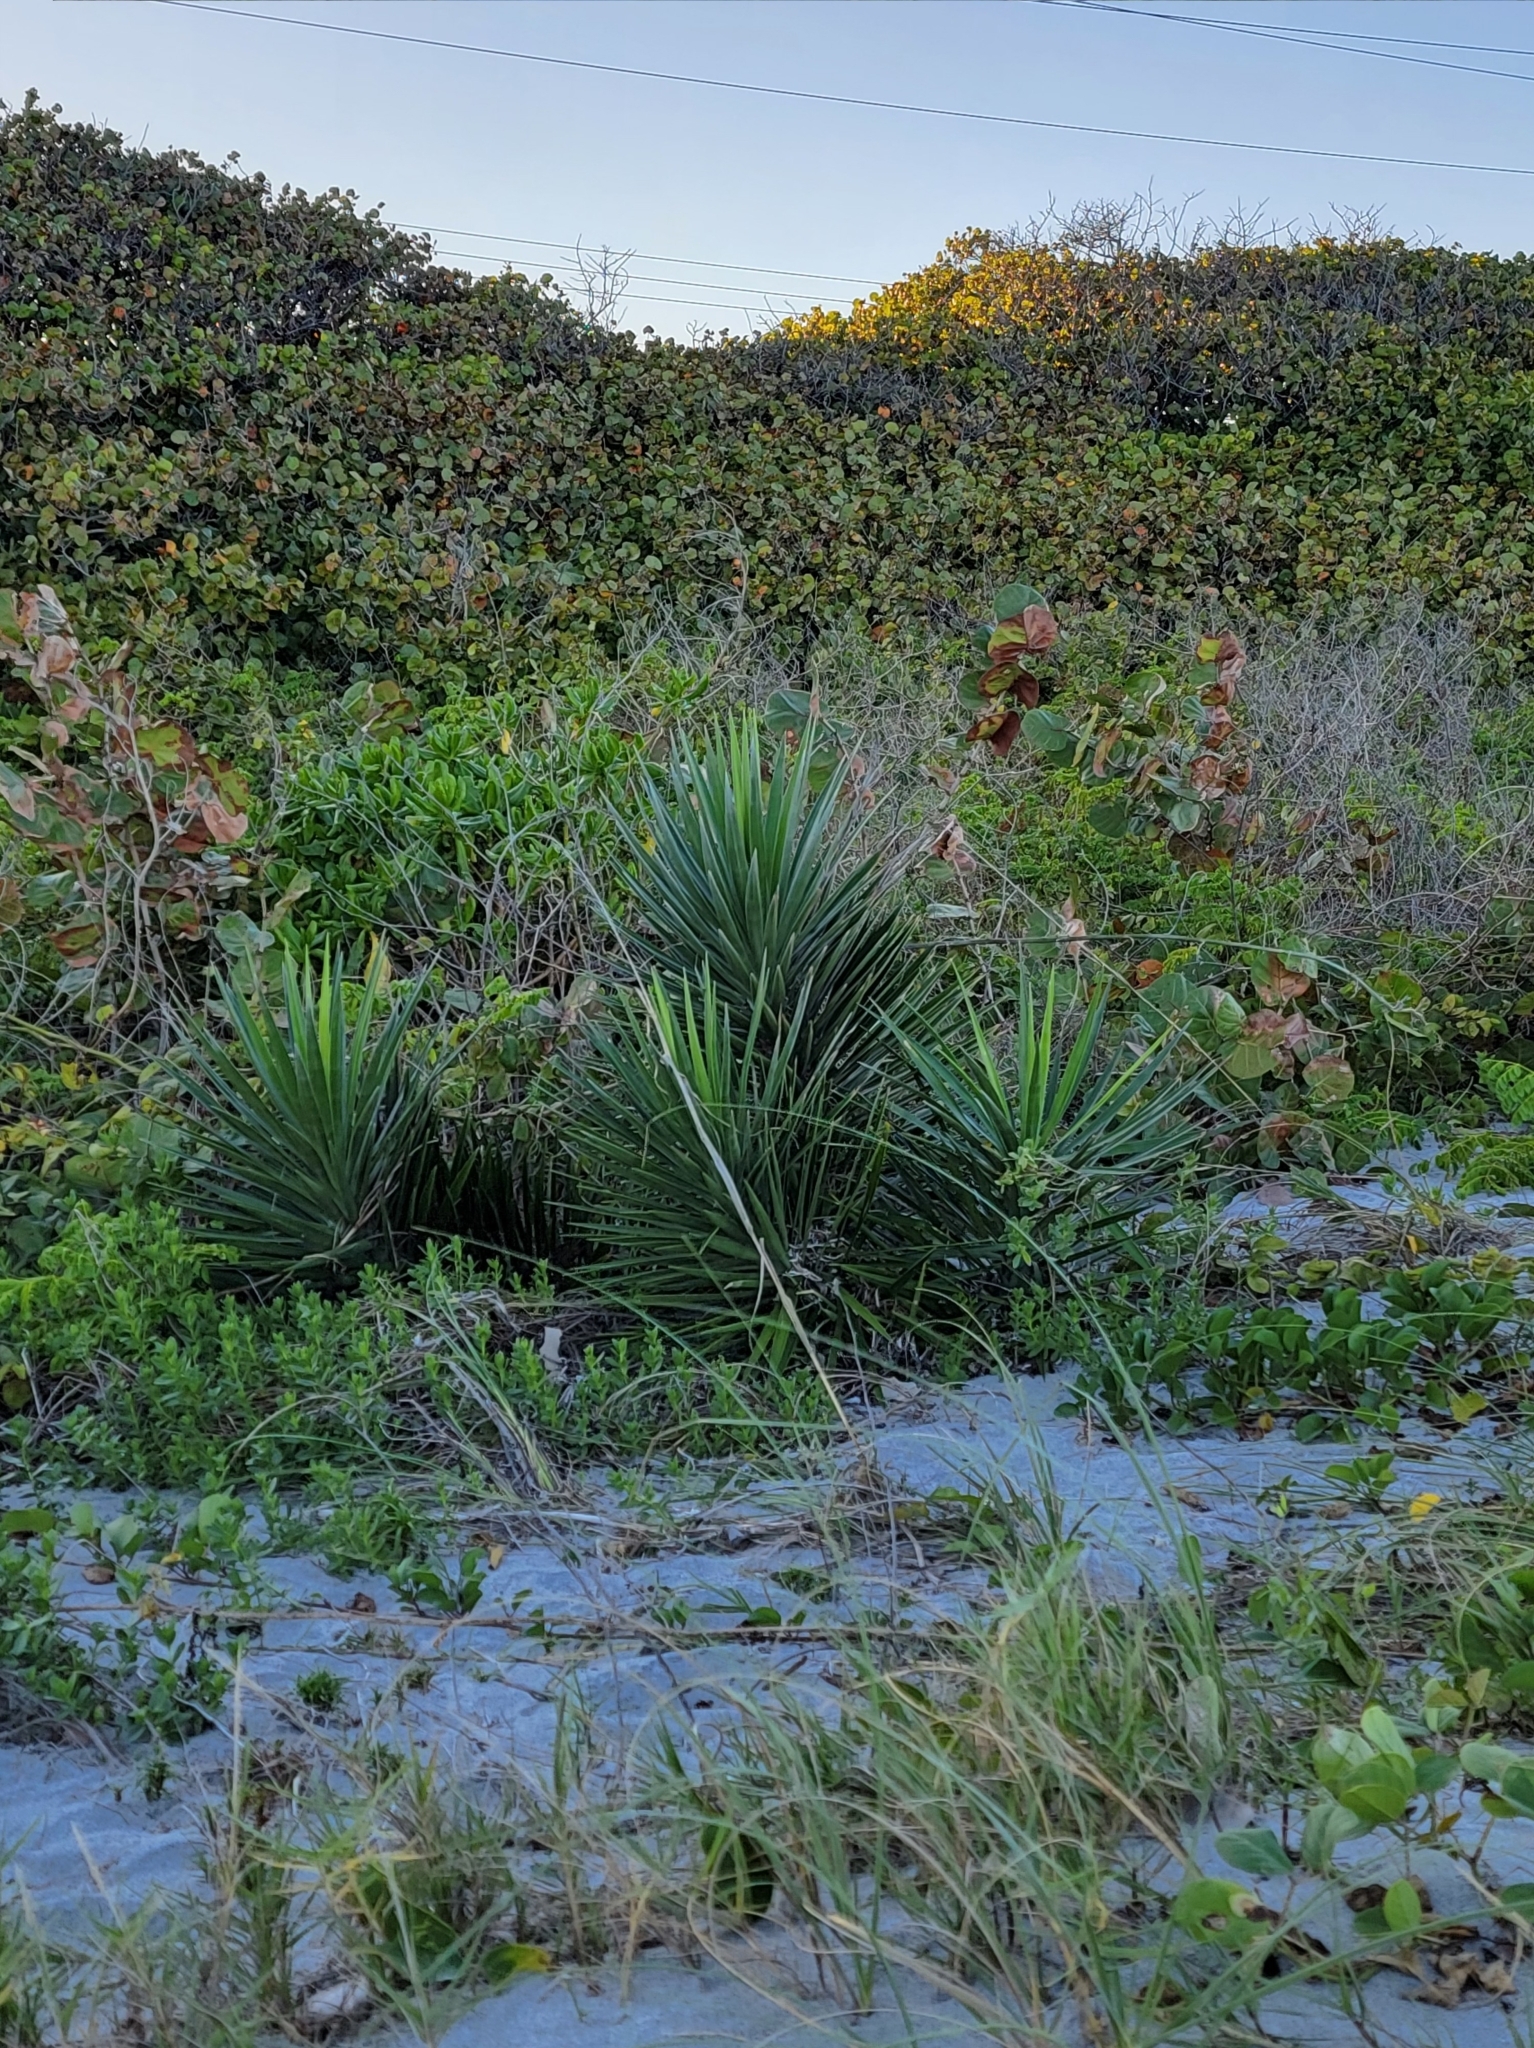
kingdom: Plantae
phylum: Tracheophyta
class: Liliopsida
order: Asparagales
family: Asparagaceae
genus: Yucca
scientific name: Yucca aloifolia
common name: Aloe yucca
